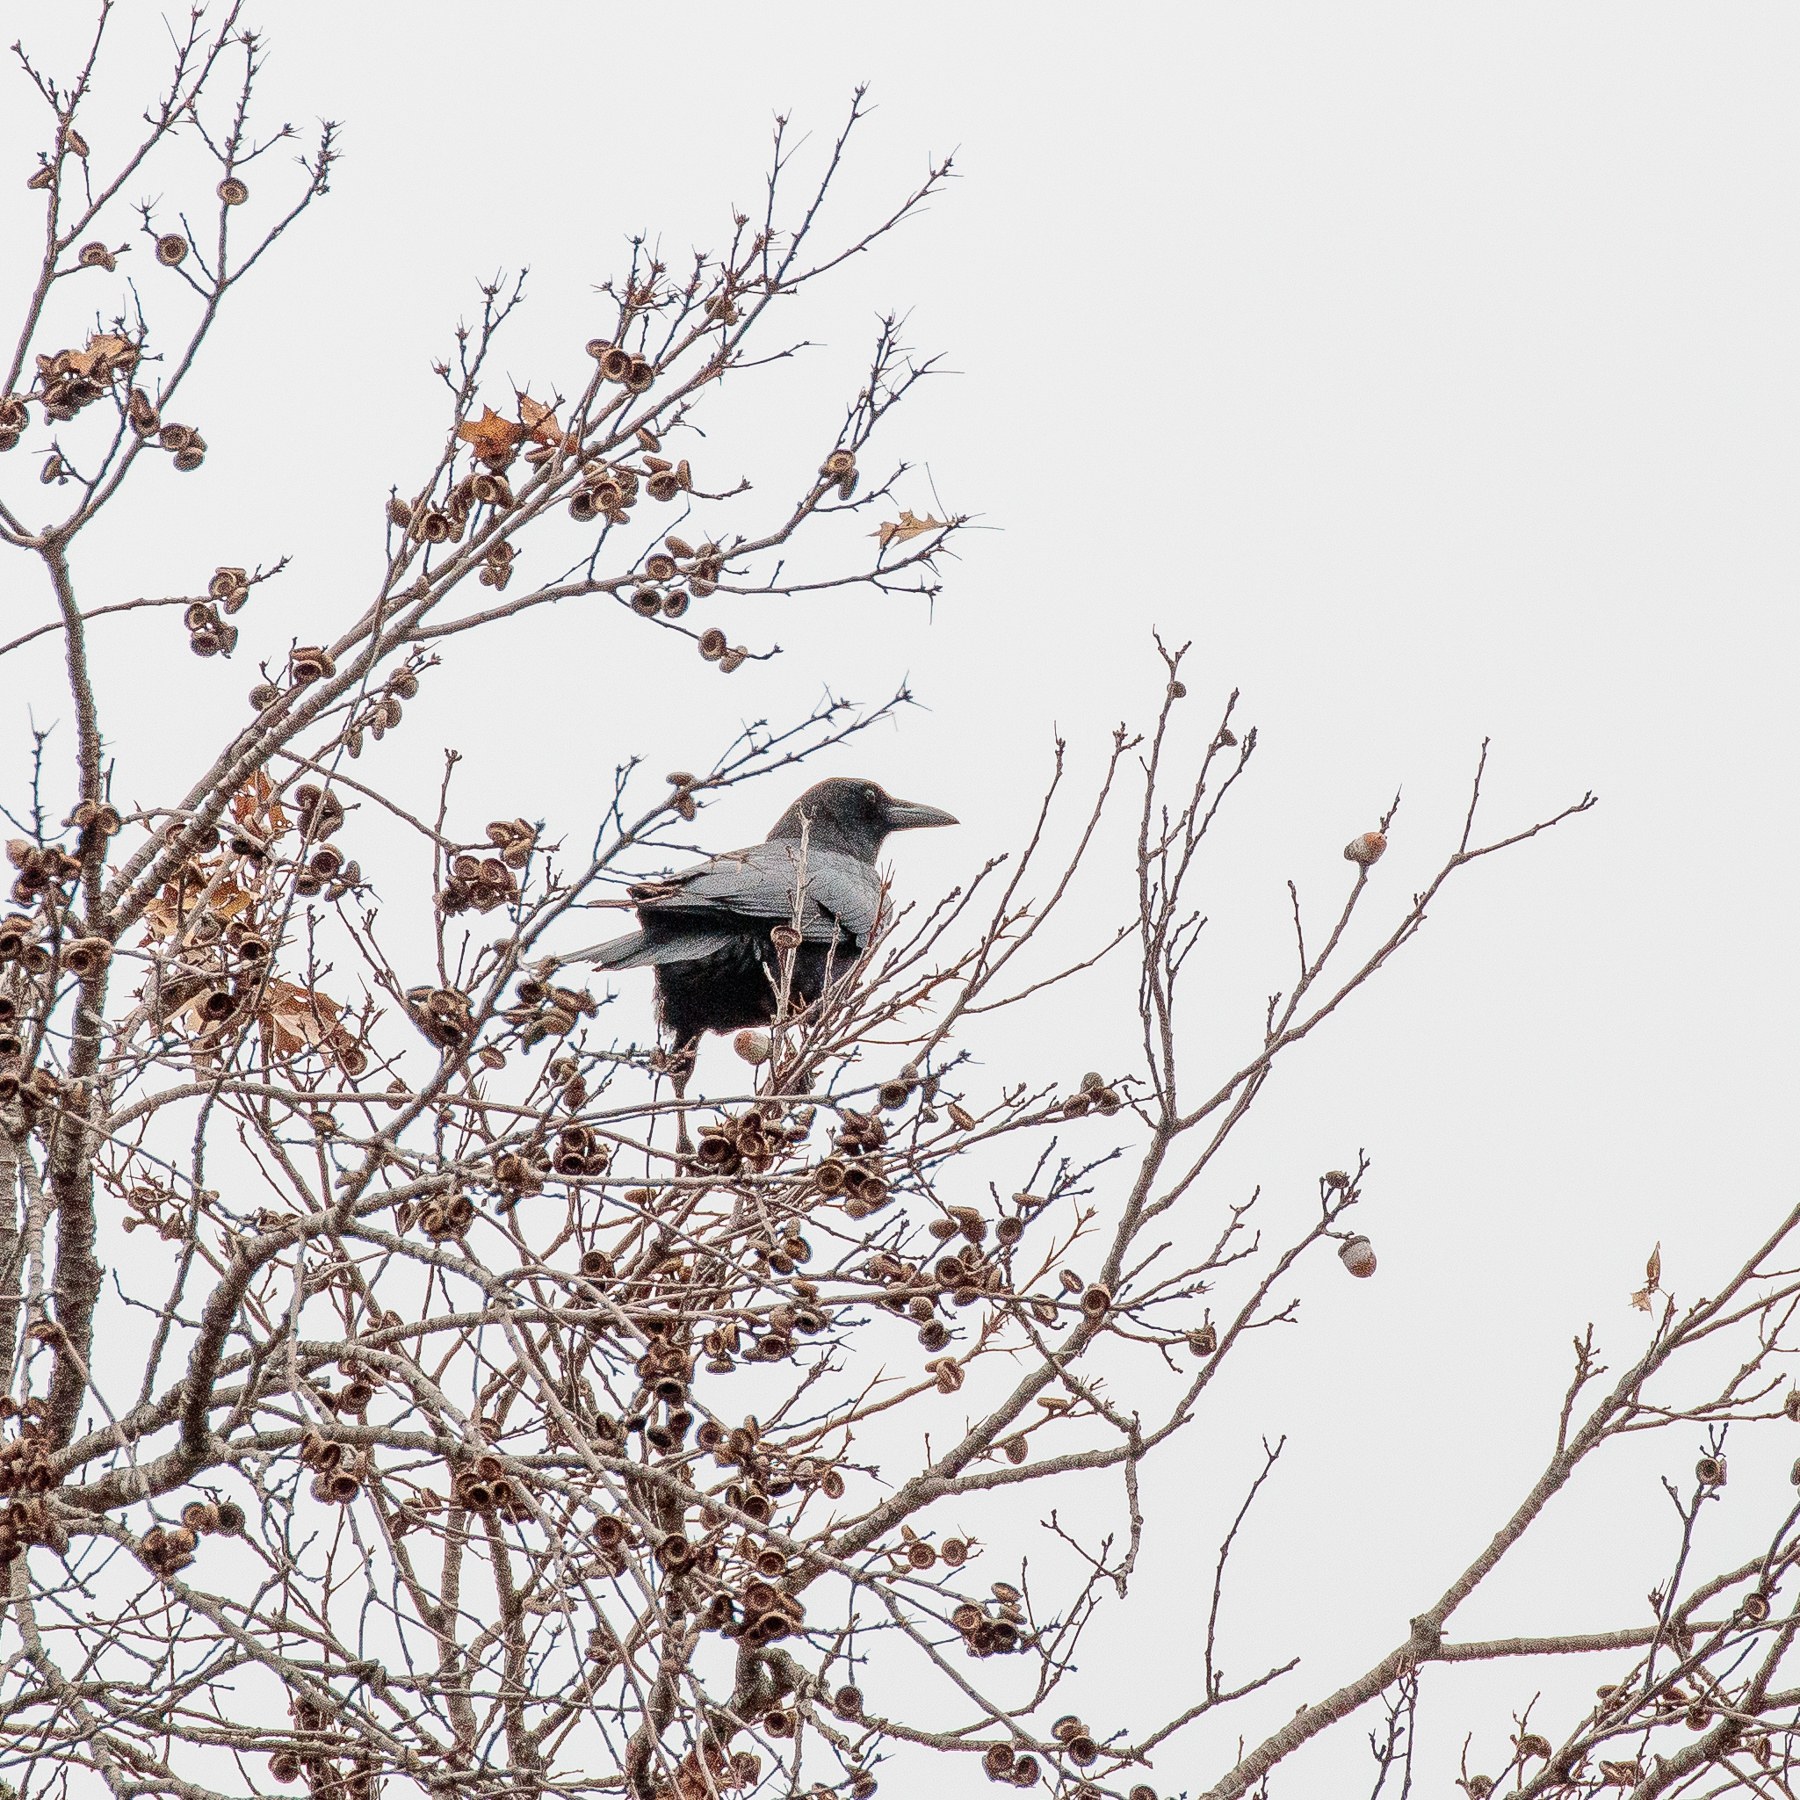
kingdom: Animalia
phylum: Chordata
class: Aves
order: Passeriformes
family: Corvidae
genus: Corvus
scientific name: Corvus brachyrhynchos
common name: American crow
